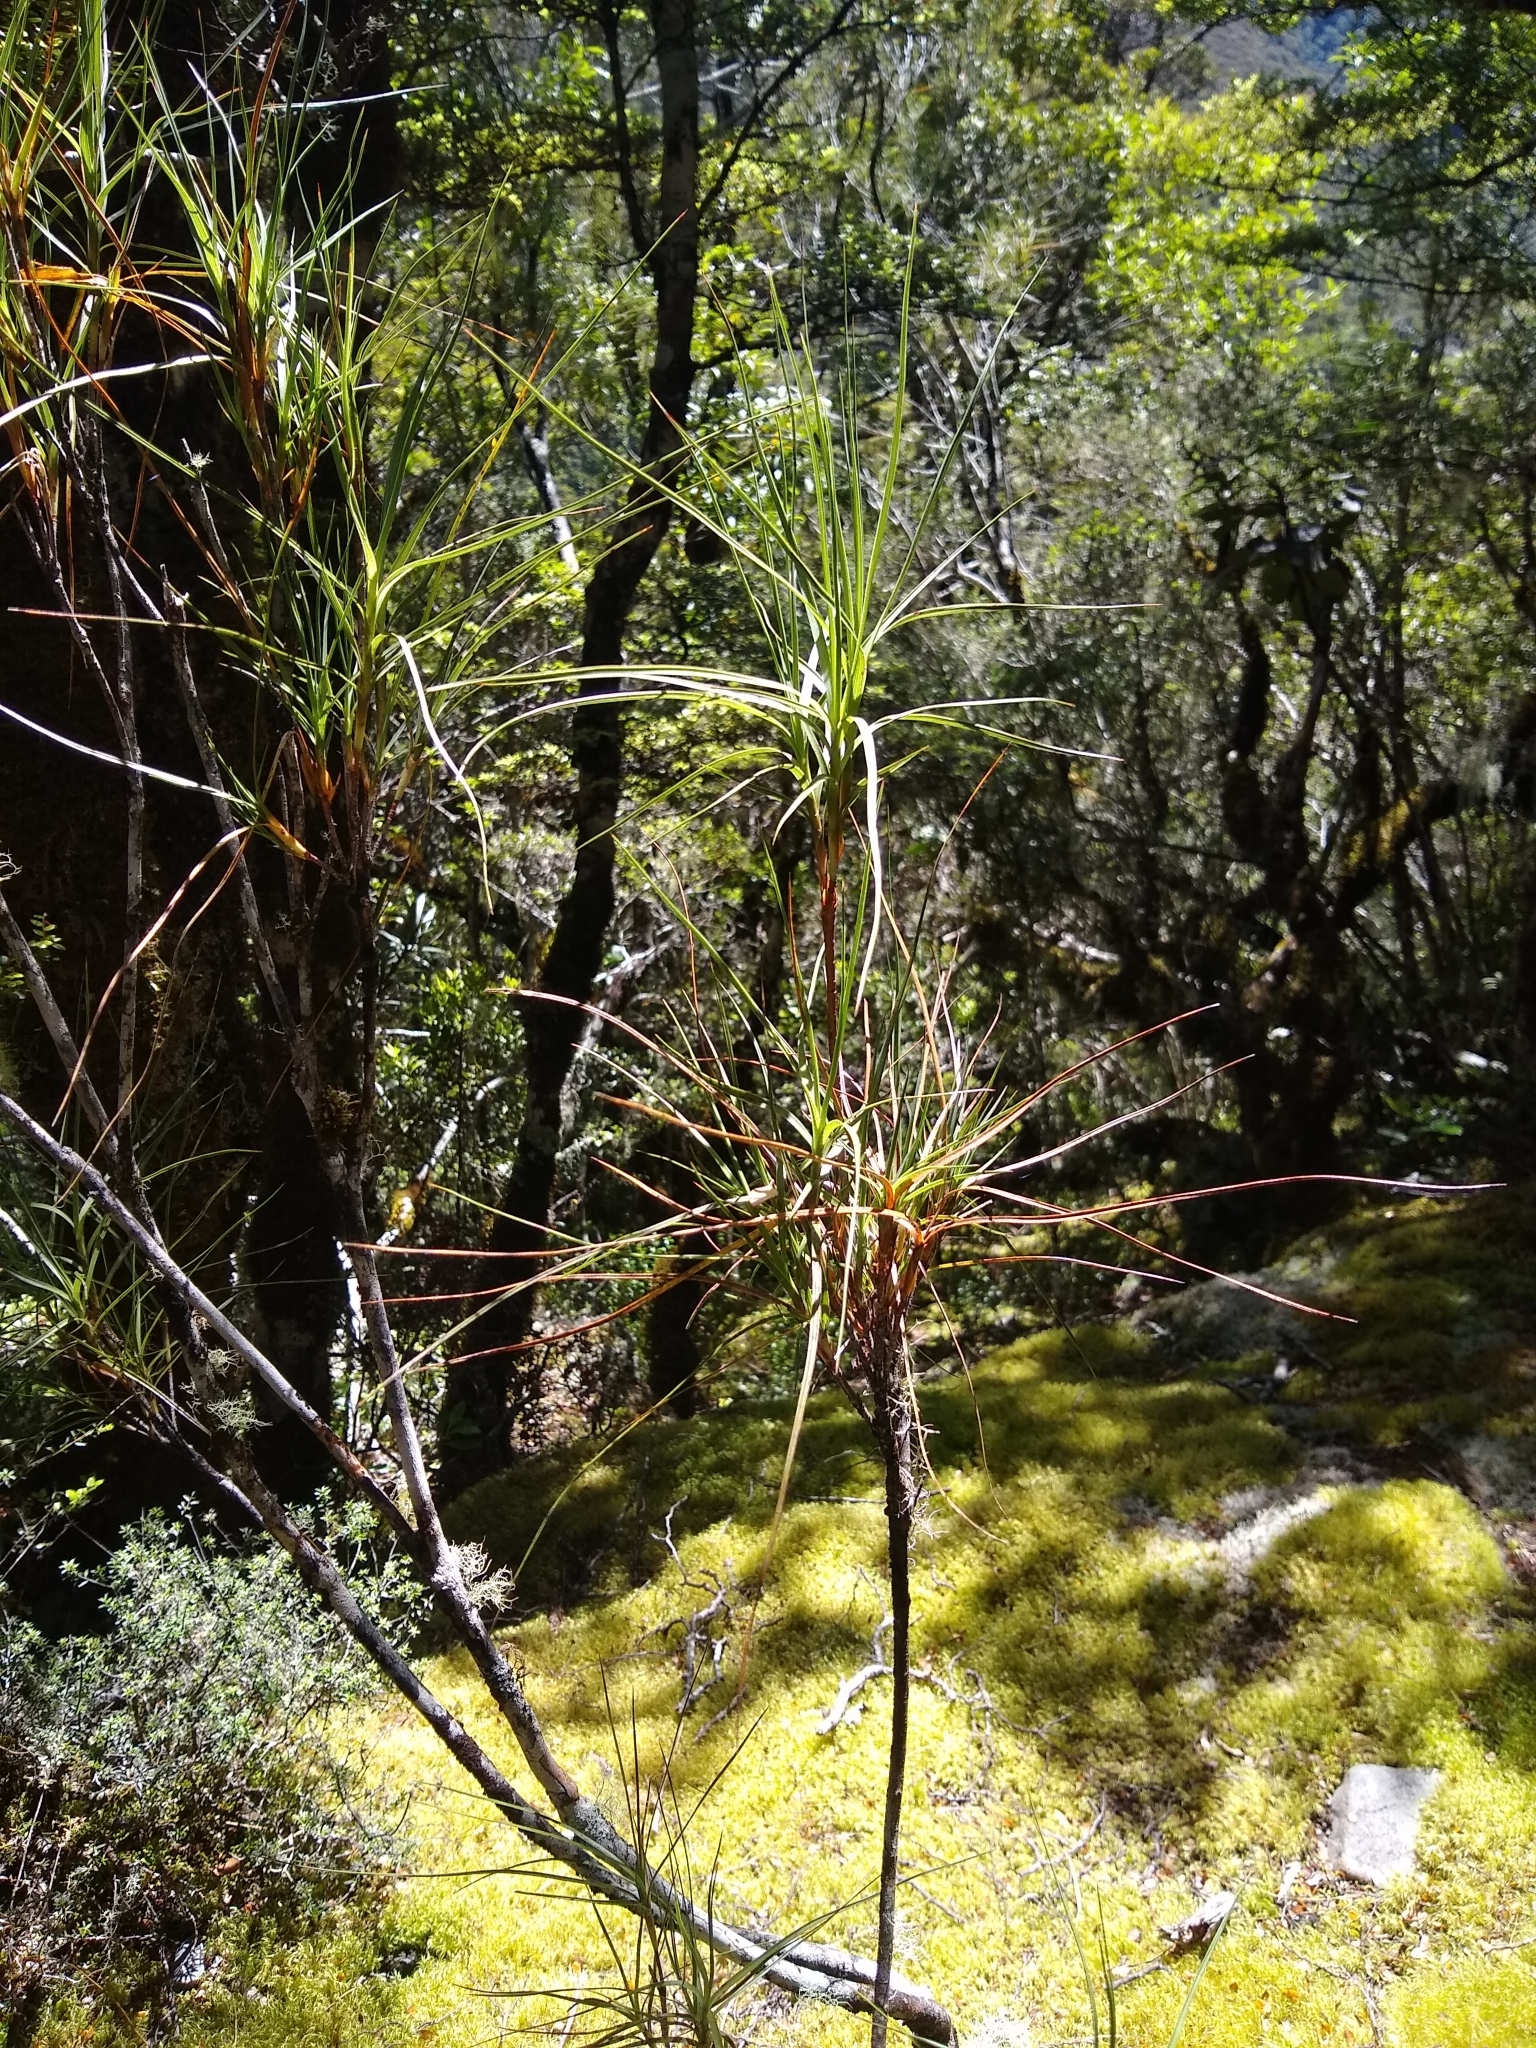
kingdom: Plantae
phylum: Tracheophyta
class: Magnoliopsida
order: Ericales
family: Ericaceae
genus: Dracophyllum
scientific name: Dracophyllum longifolium
